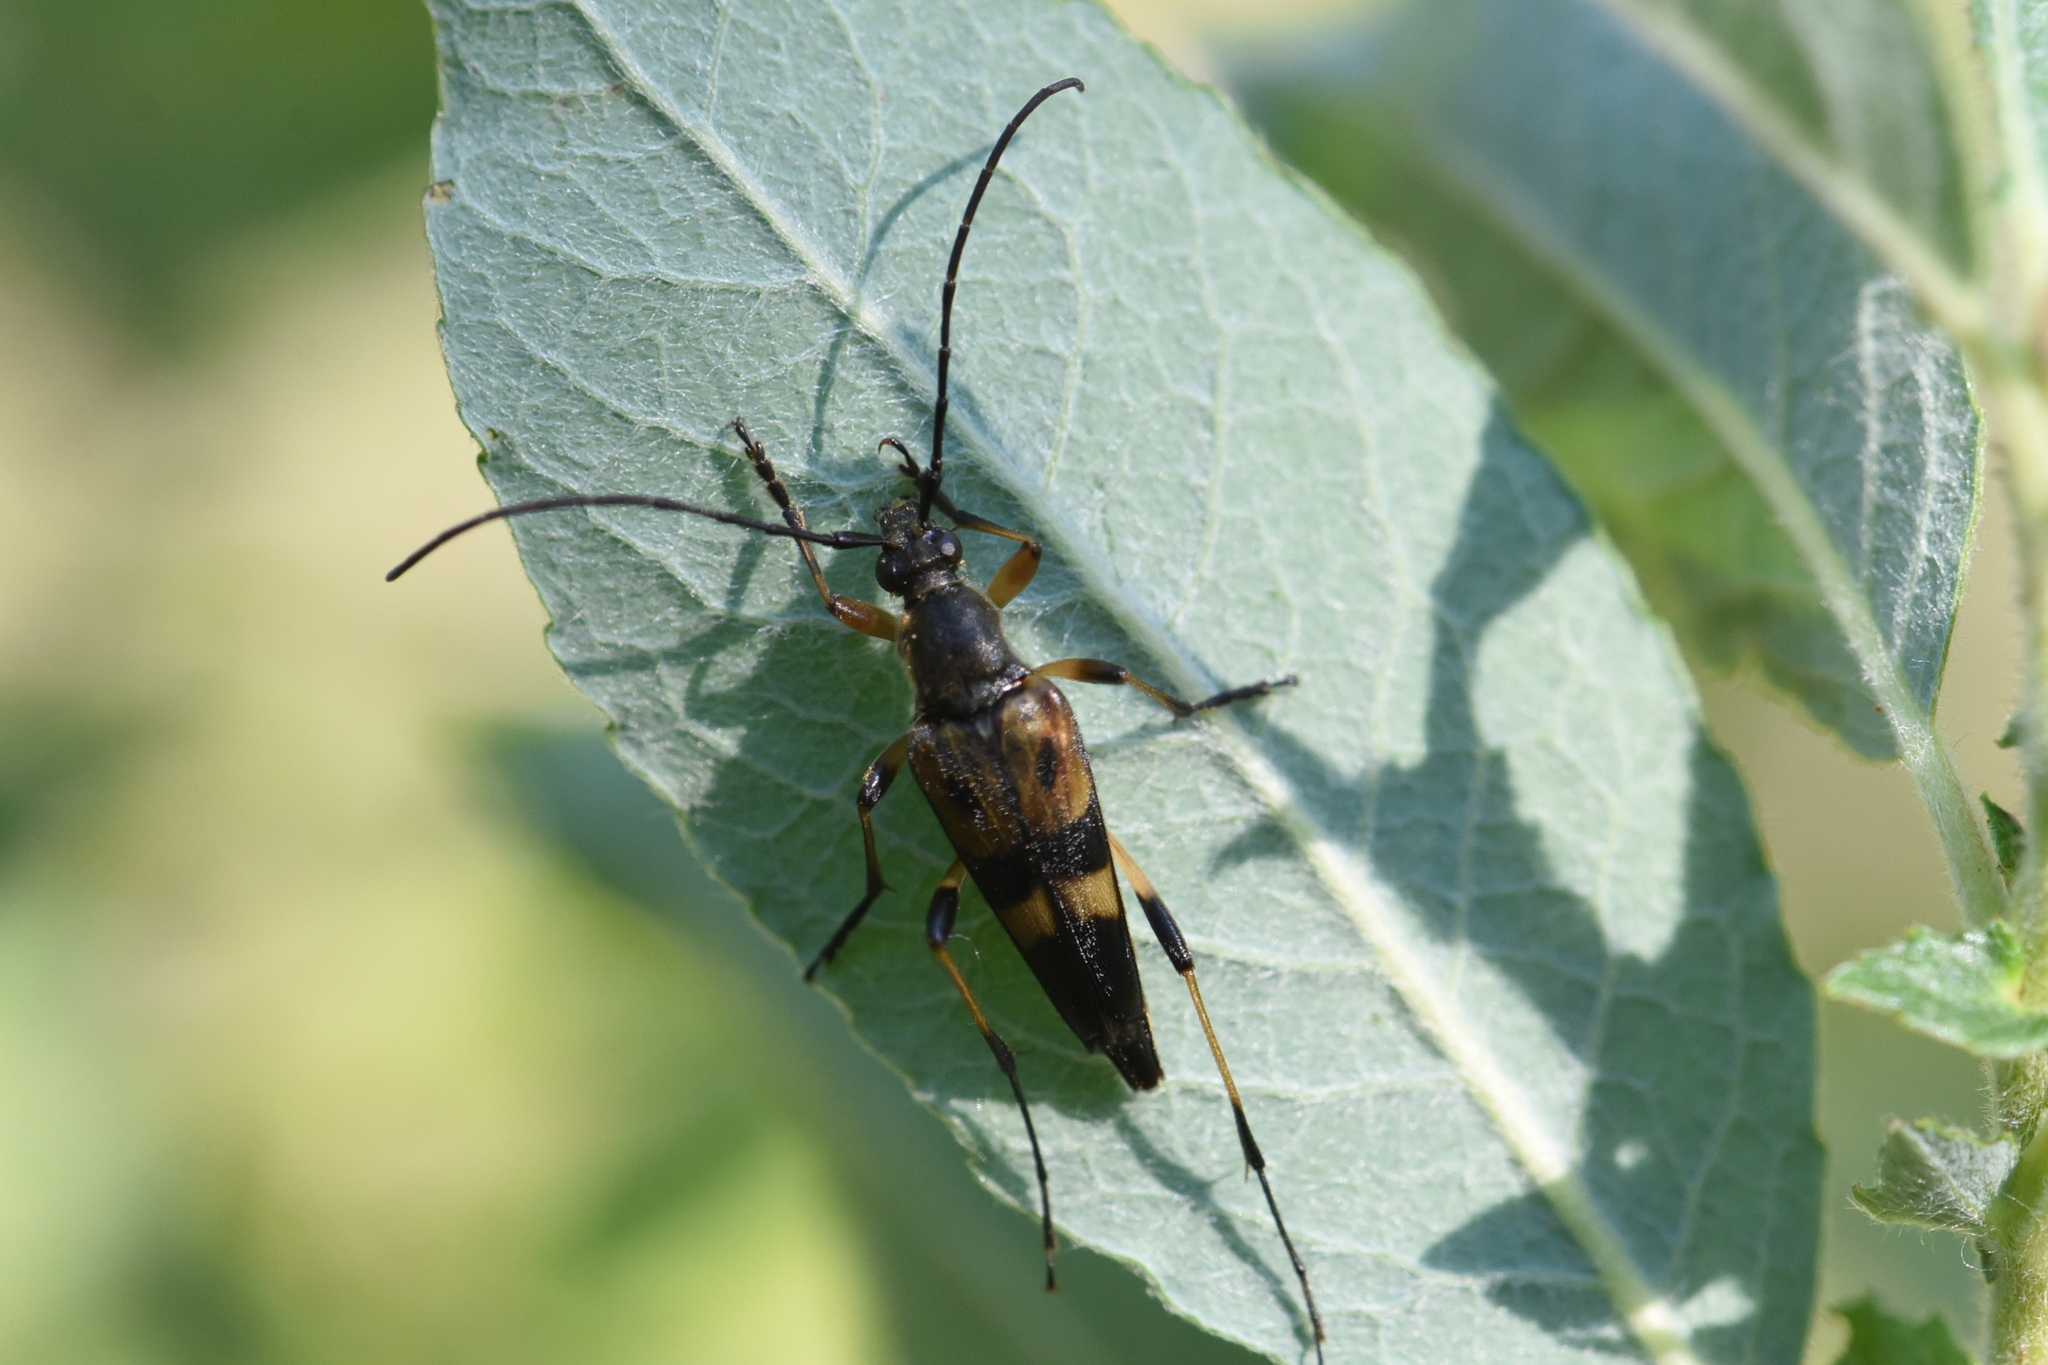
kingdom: Animalia
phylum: Arthropoda
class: Insecta
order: Coleoptera
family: Cerambycidae
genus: Etorofus
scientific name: Etorofus obliteratus
